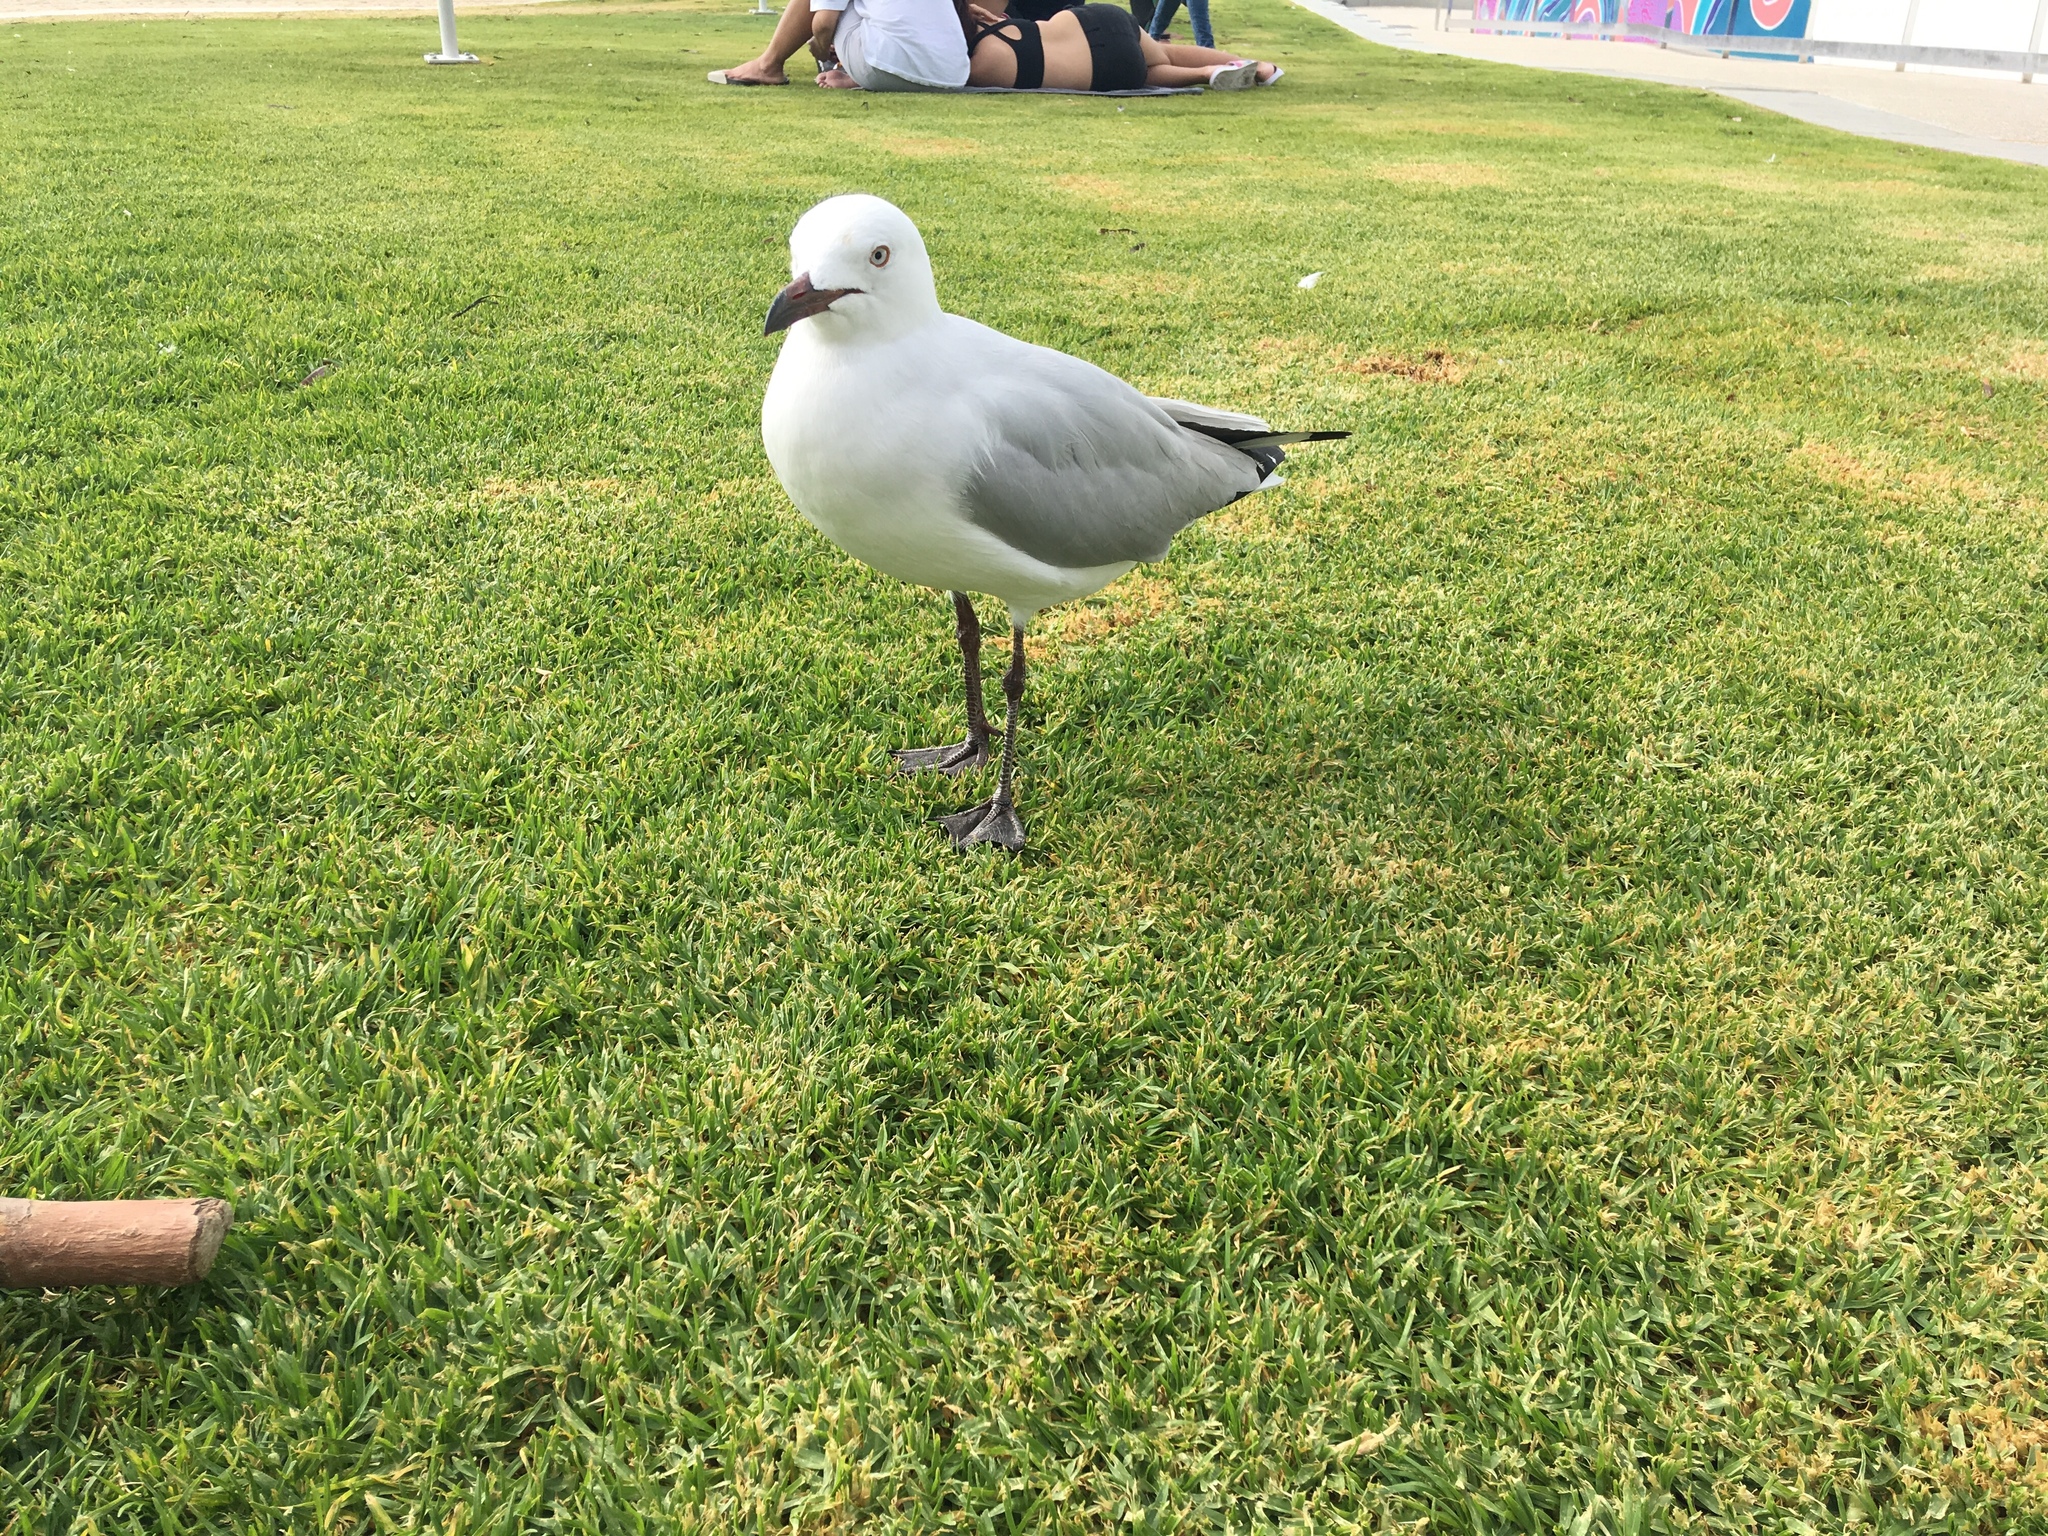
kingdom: Animalia
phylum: Chordata
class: Aves
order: Charadriiformes
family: Laridae
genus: Chroicocephalus
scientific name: Chroicocephalus novaehollandiae
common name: Silver gull
